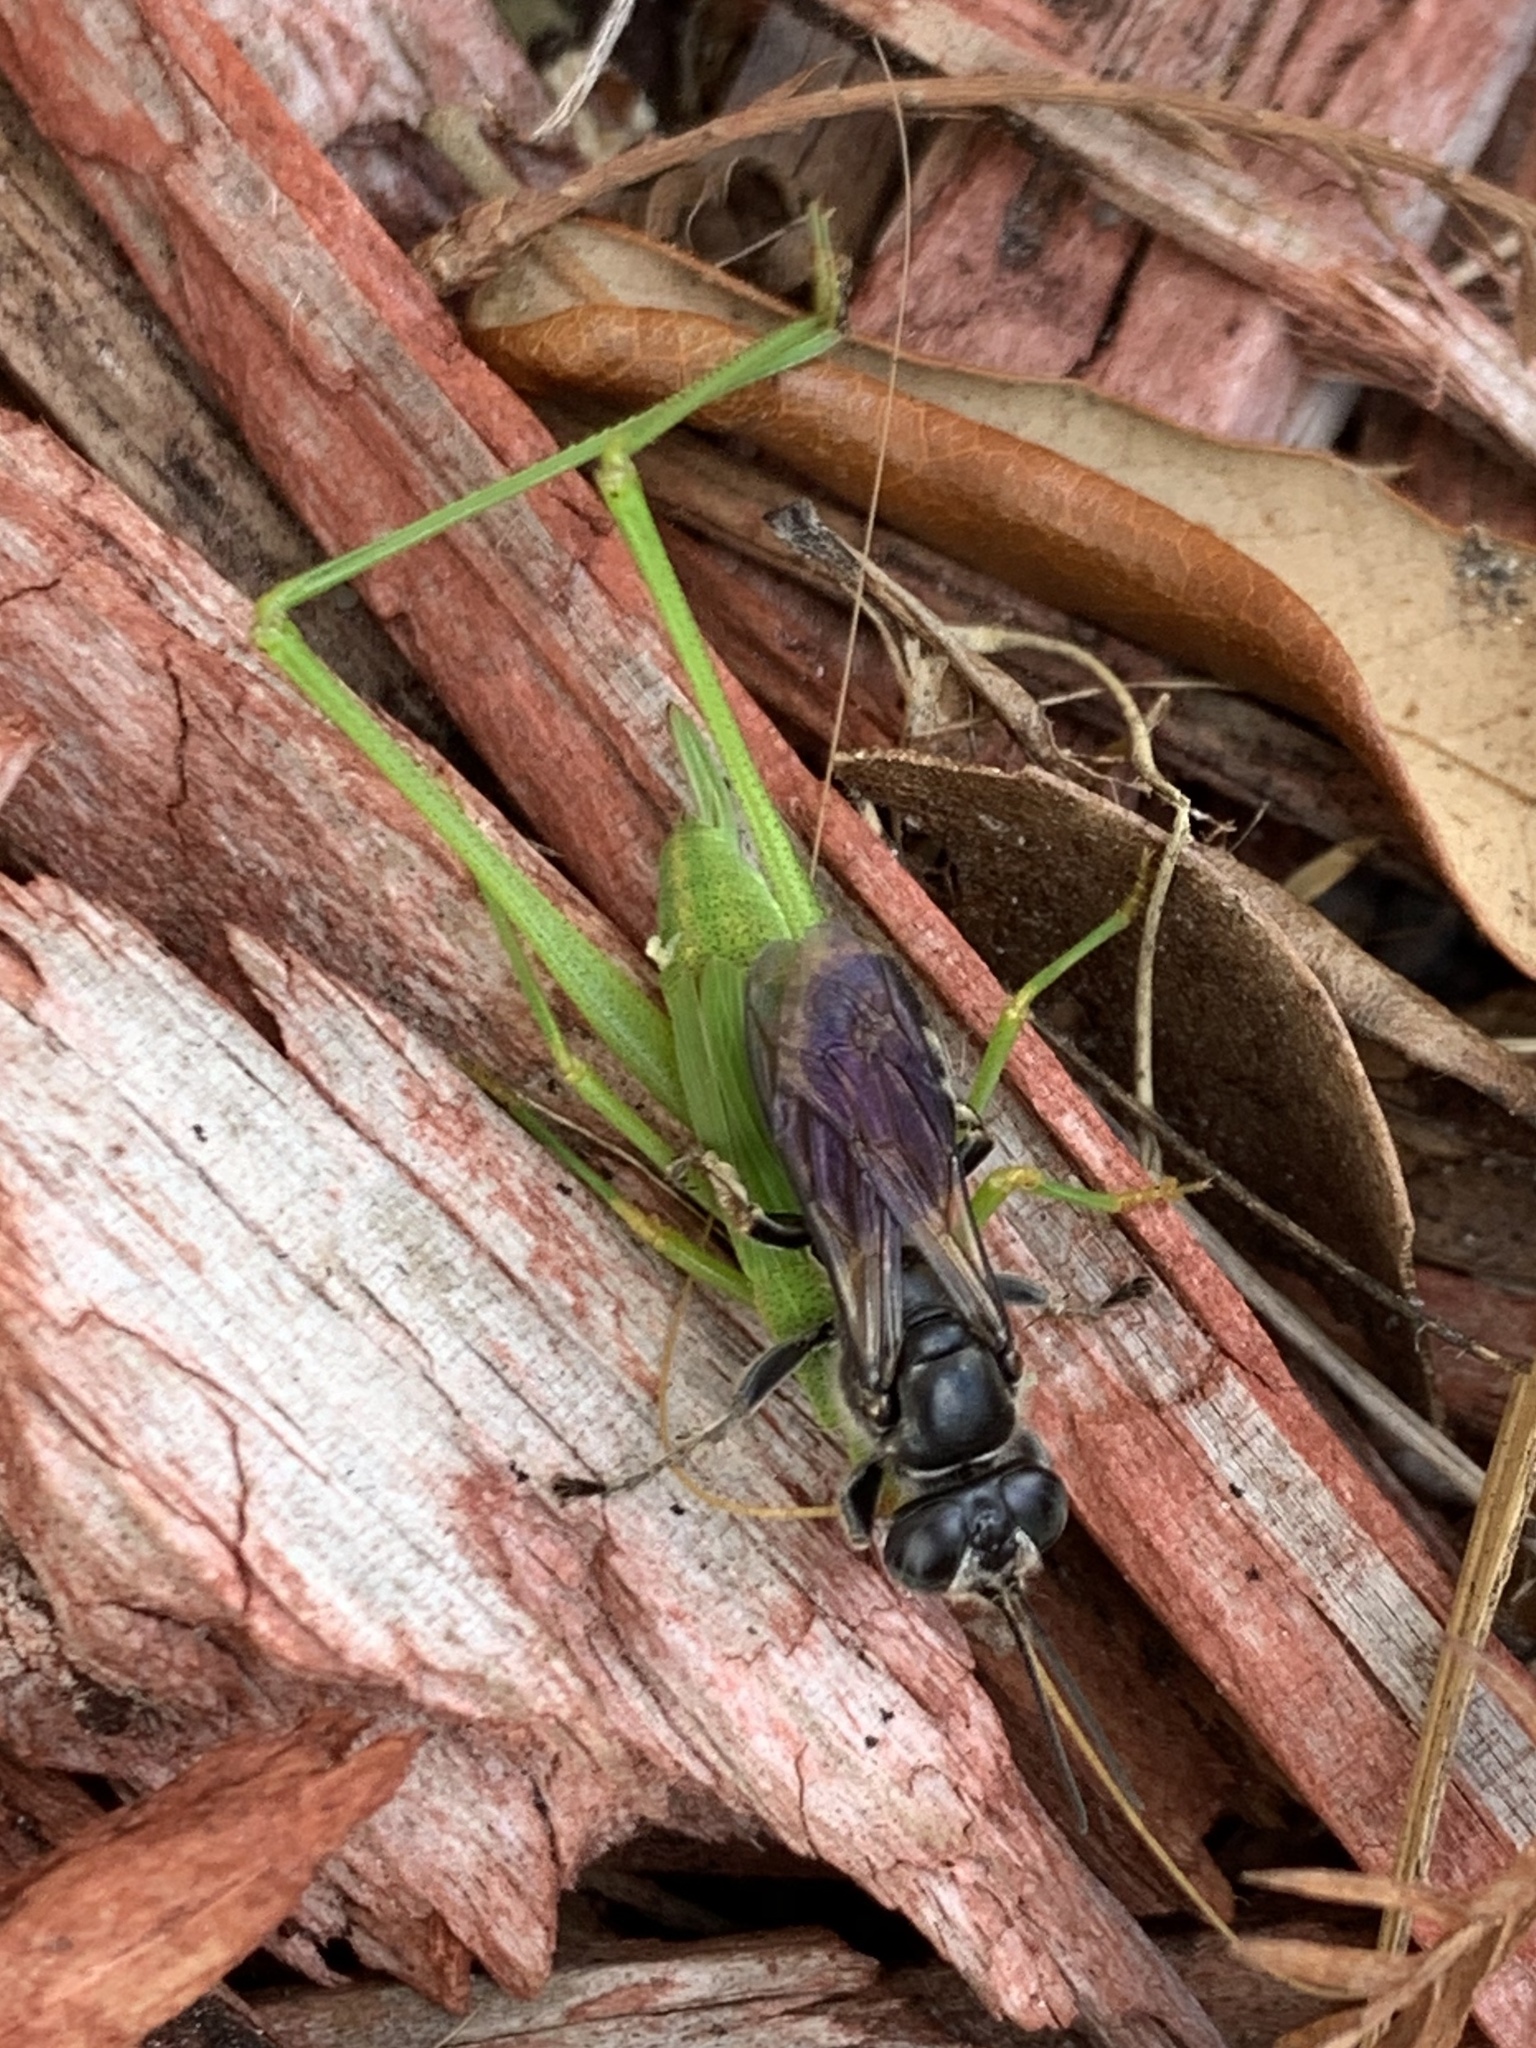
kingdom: Animalia
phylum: Arthropoda
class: Insecta
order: Hymenoptera
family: Crabronidae
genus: Tachytes
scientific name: Tachytes
